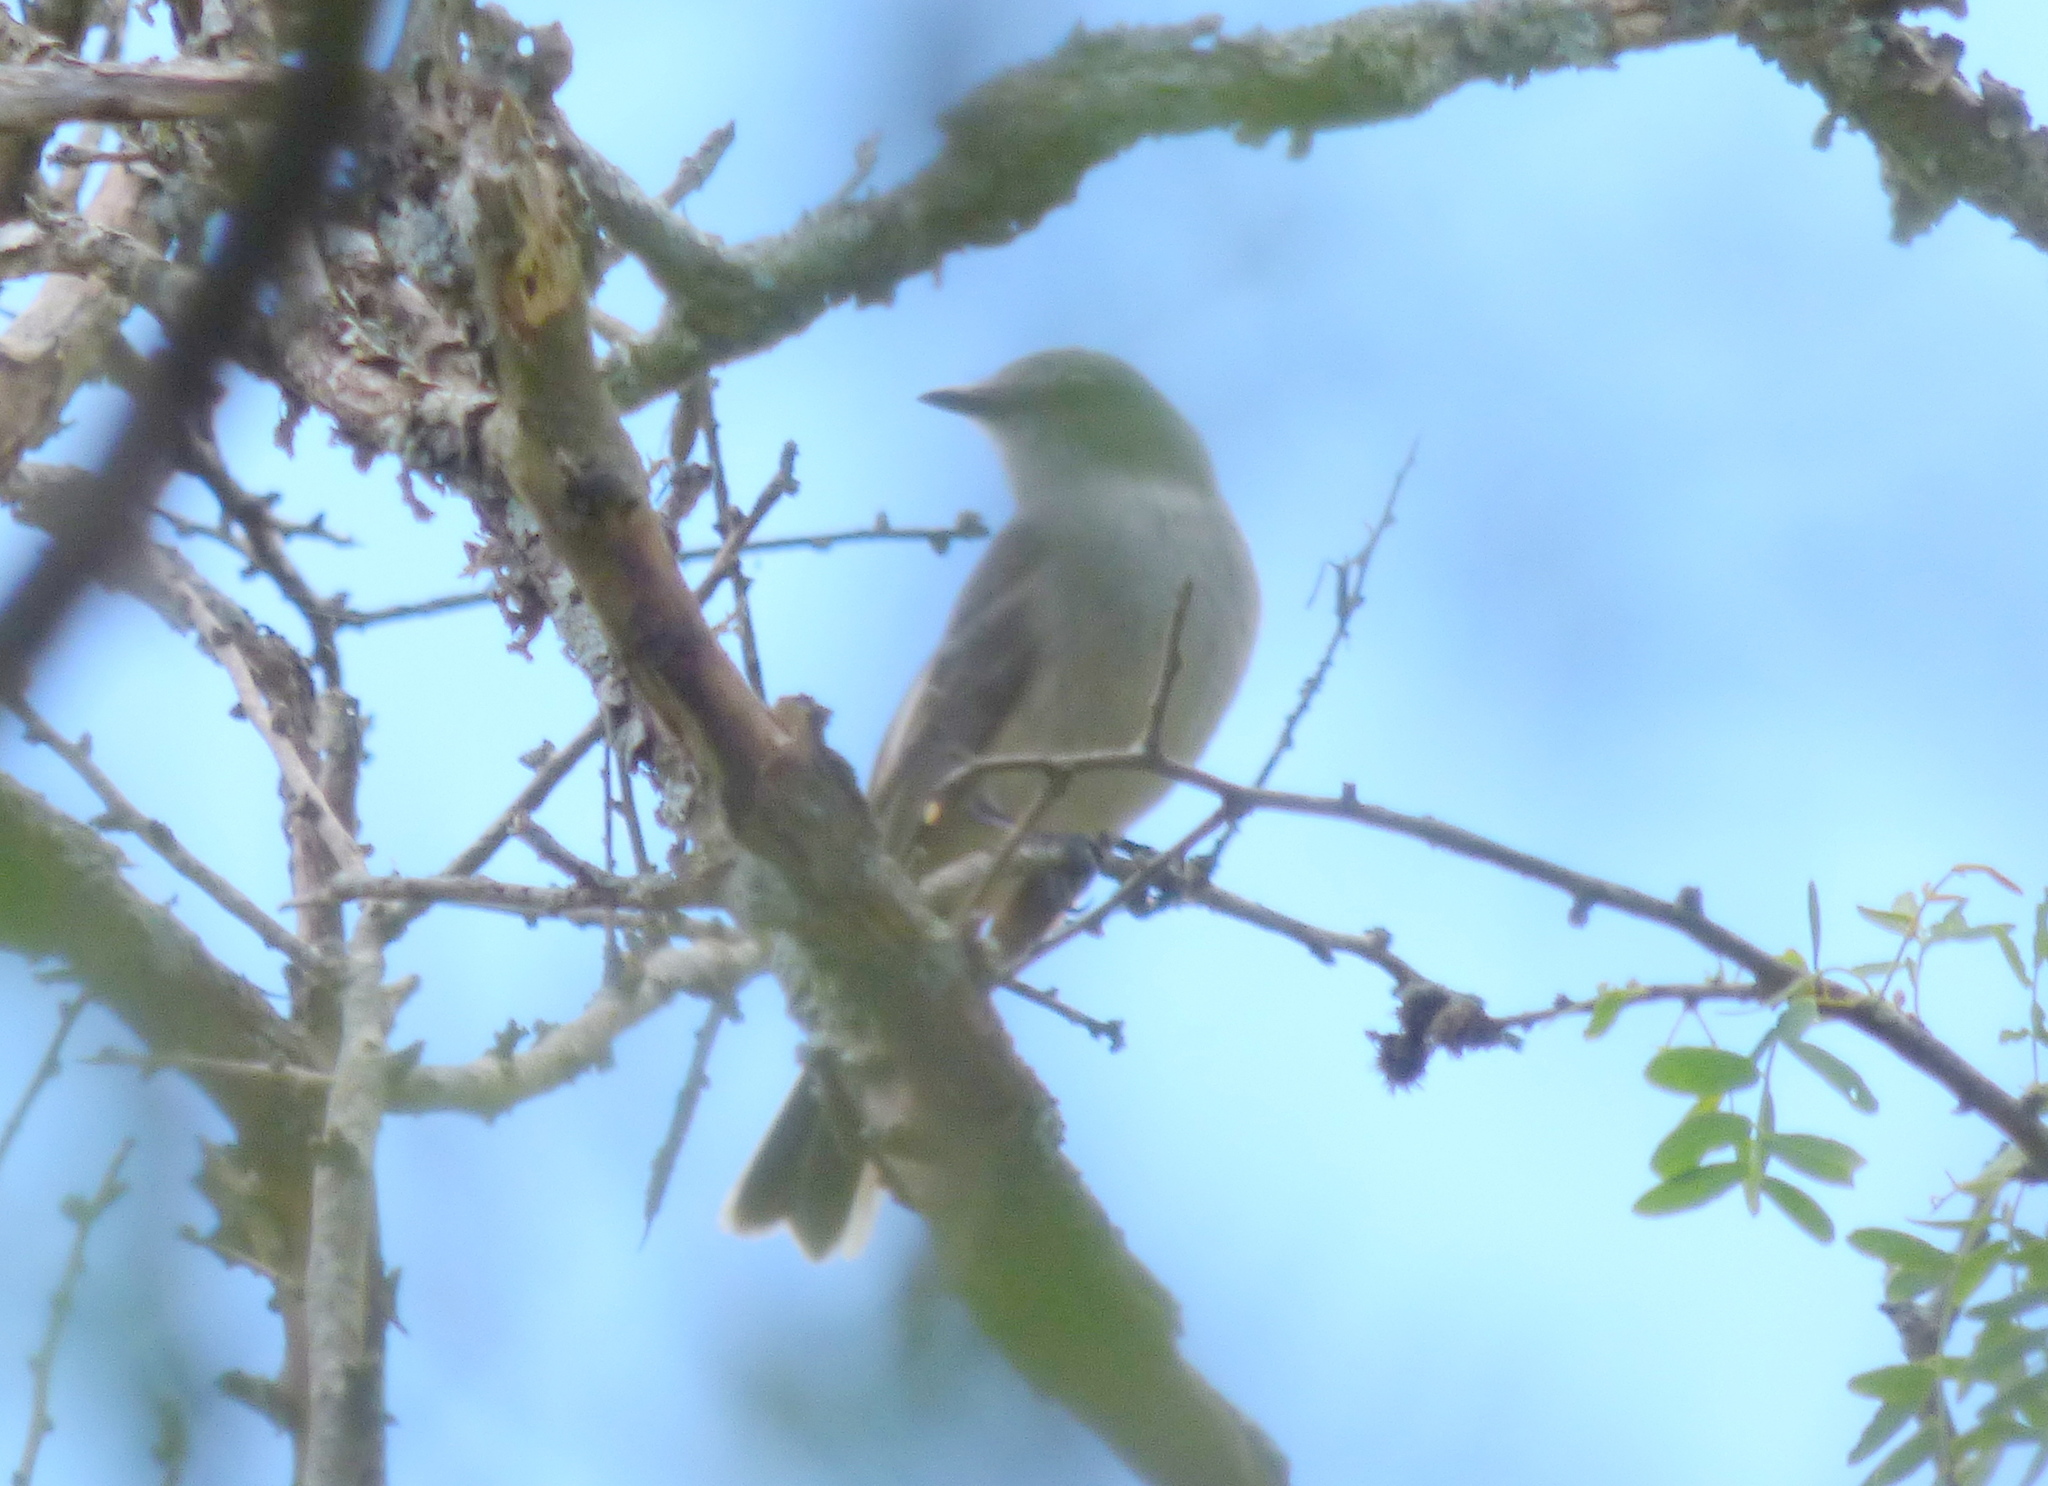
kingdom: Animalia
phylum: Chordata
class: Aves
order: Passeriformes
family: Tyrannidae
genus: Suiriri
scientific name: Suiriri suiriri
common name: Suiriri flycatcher
